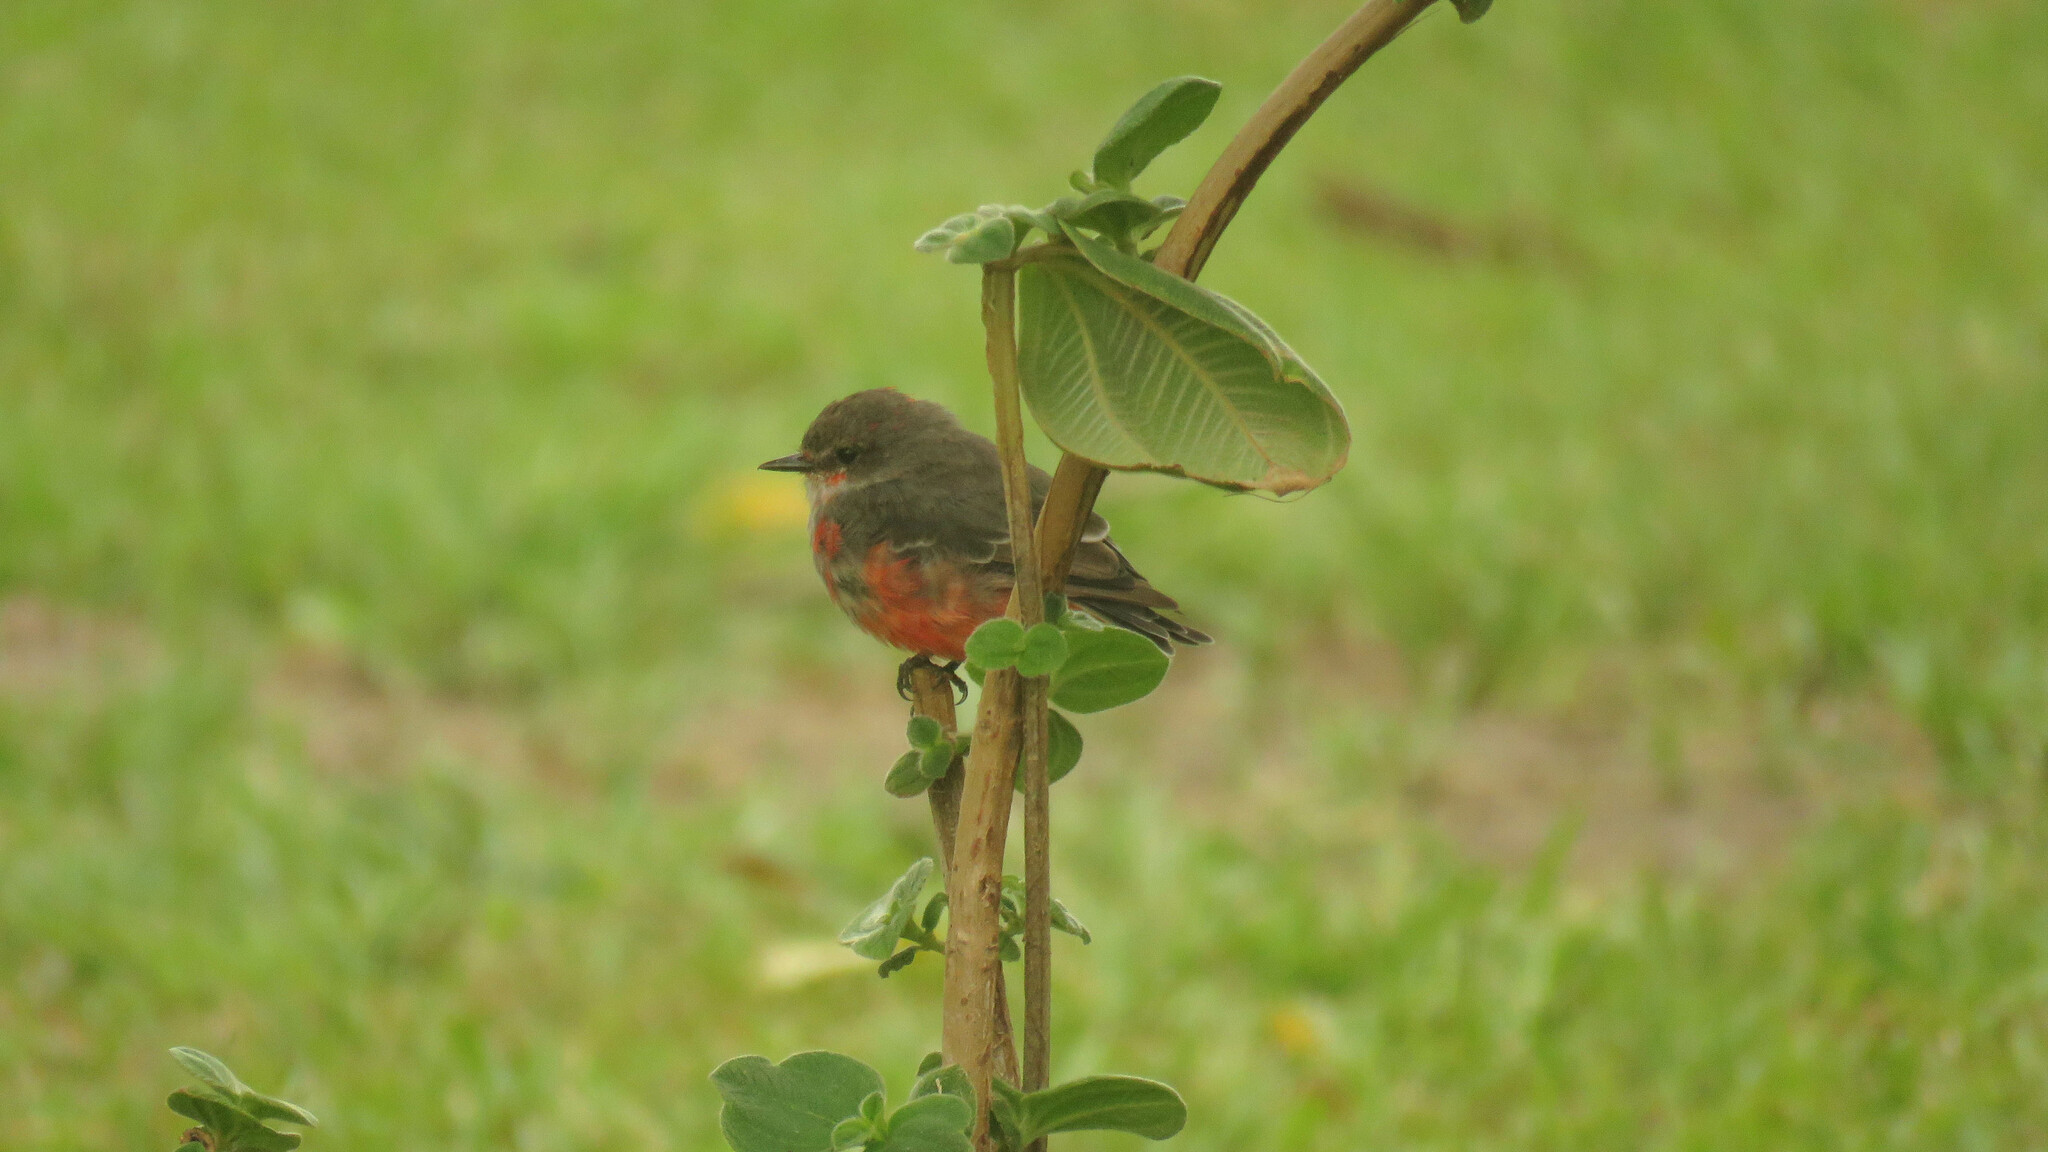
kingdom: Animalia
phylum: Chordata
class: Aves
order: Passeriformes
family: Tyrannidae
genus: Pyrocephalus
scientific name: Pyrocephalus rubinus
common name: Vermilion flycatcher
